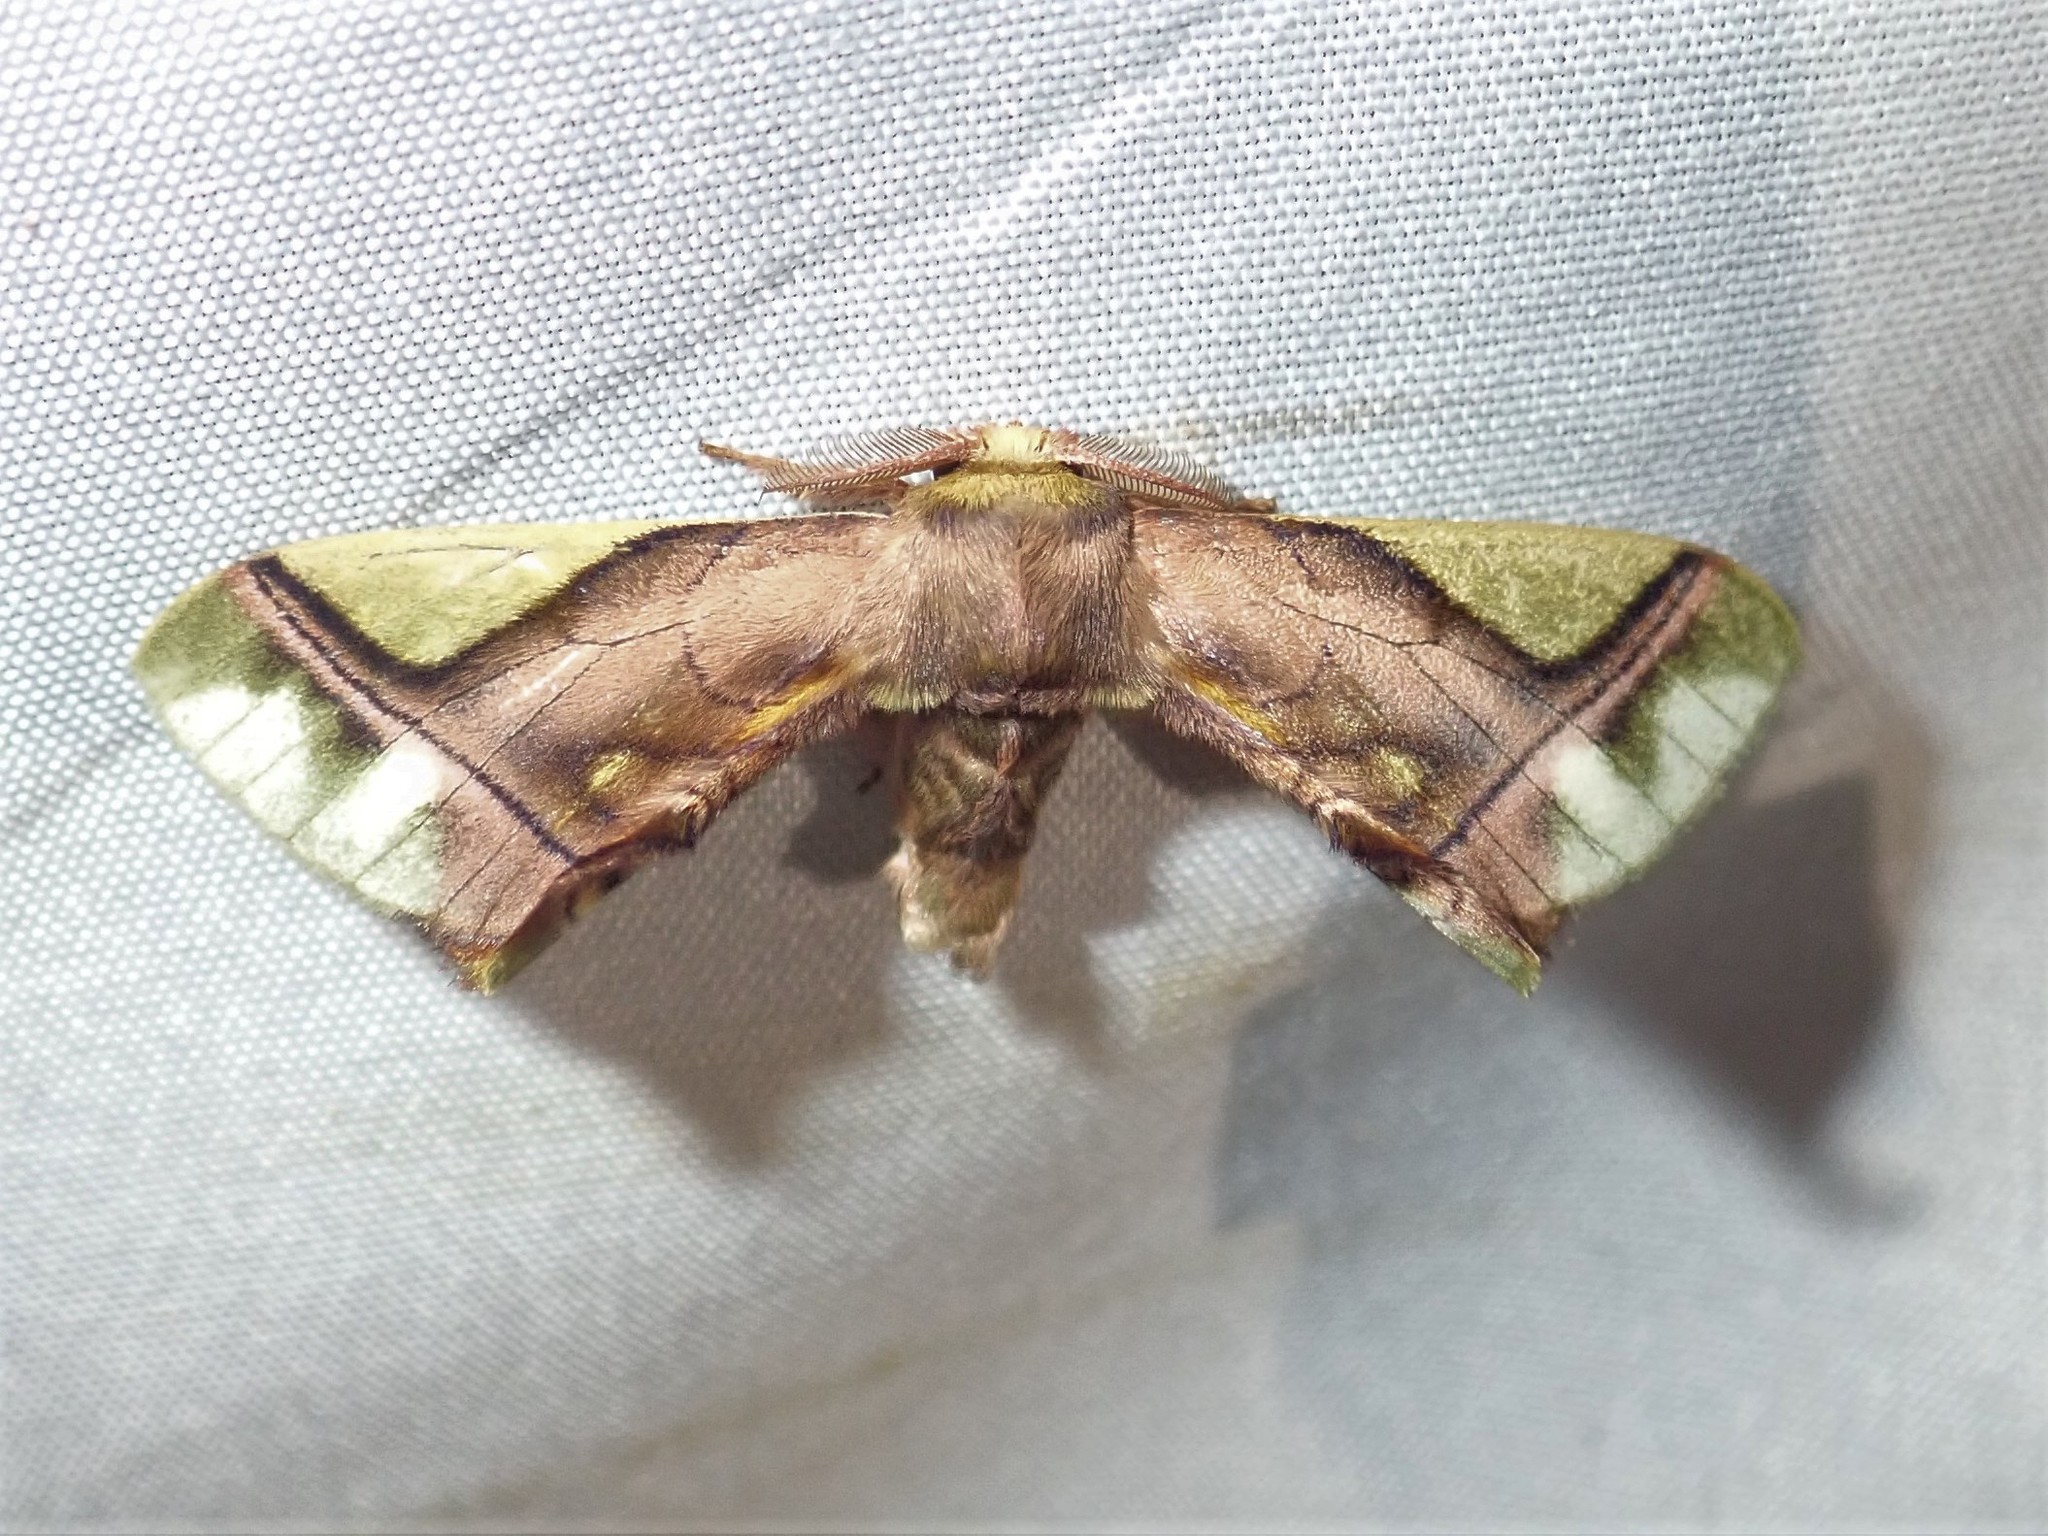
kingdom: Animalia
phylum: Arthropoda
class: Insecta
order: Lepidoptera
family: Bombycidae
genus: Epia
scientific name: Epia muscosa
